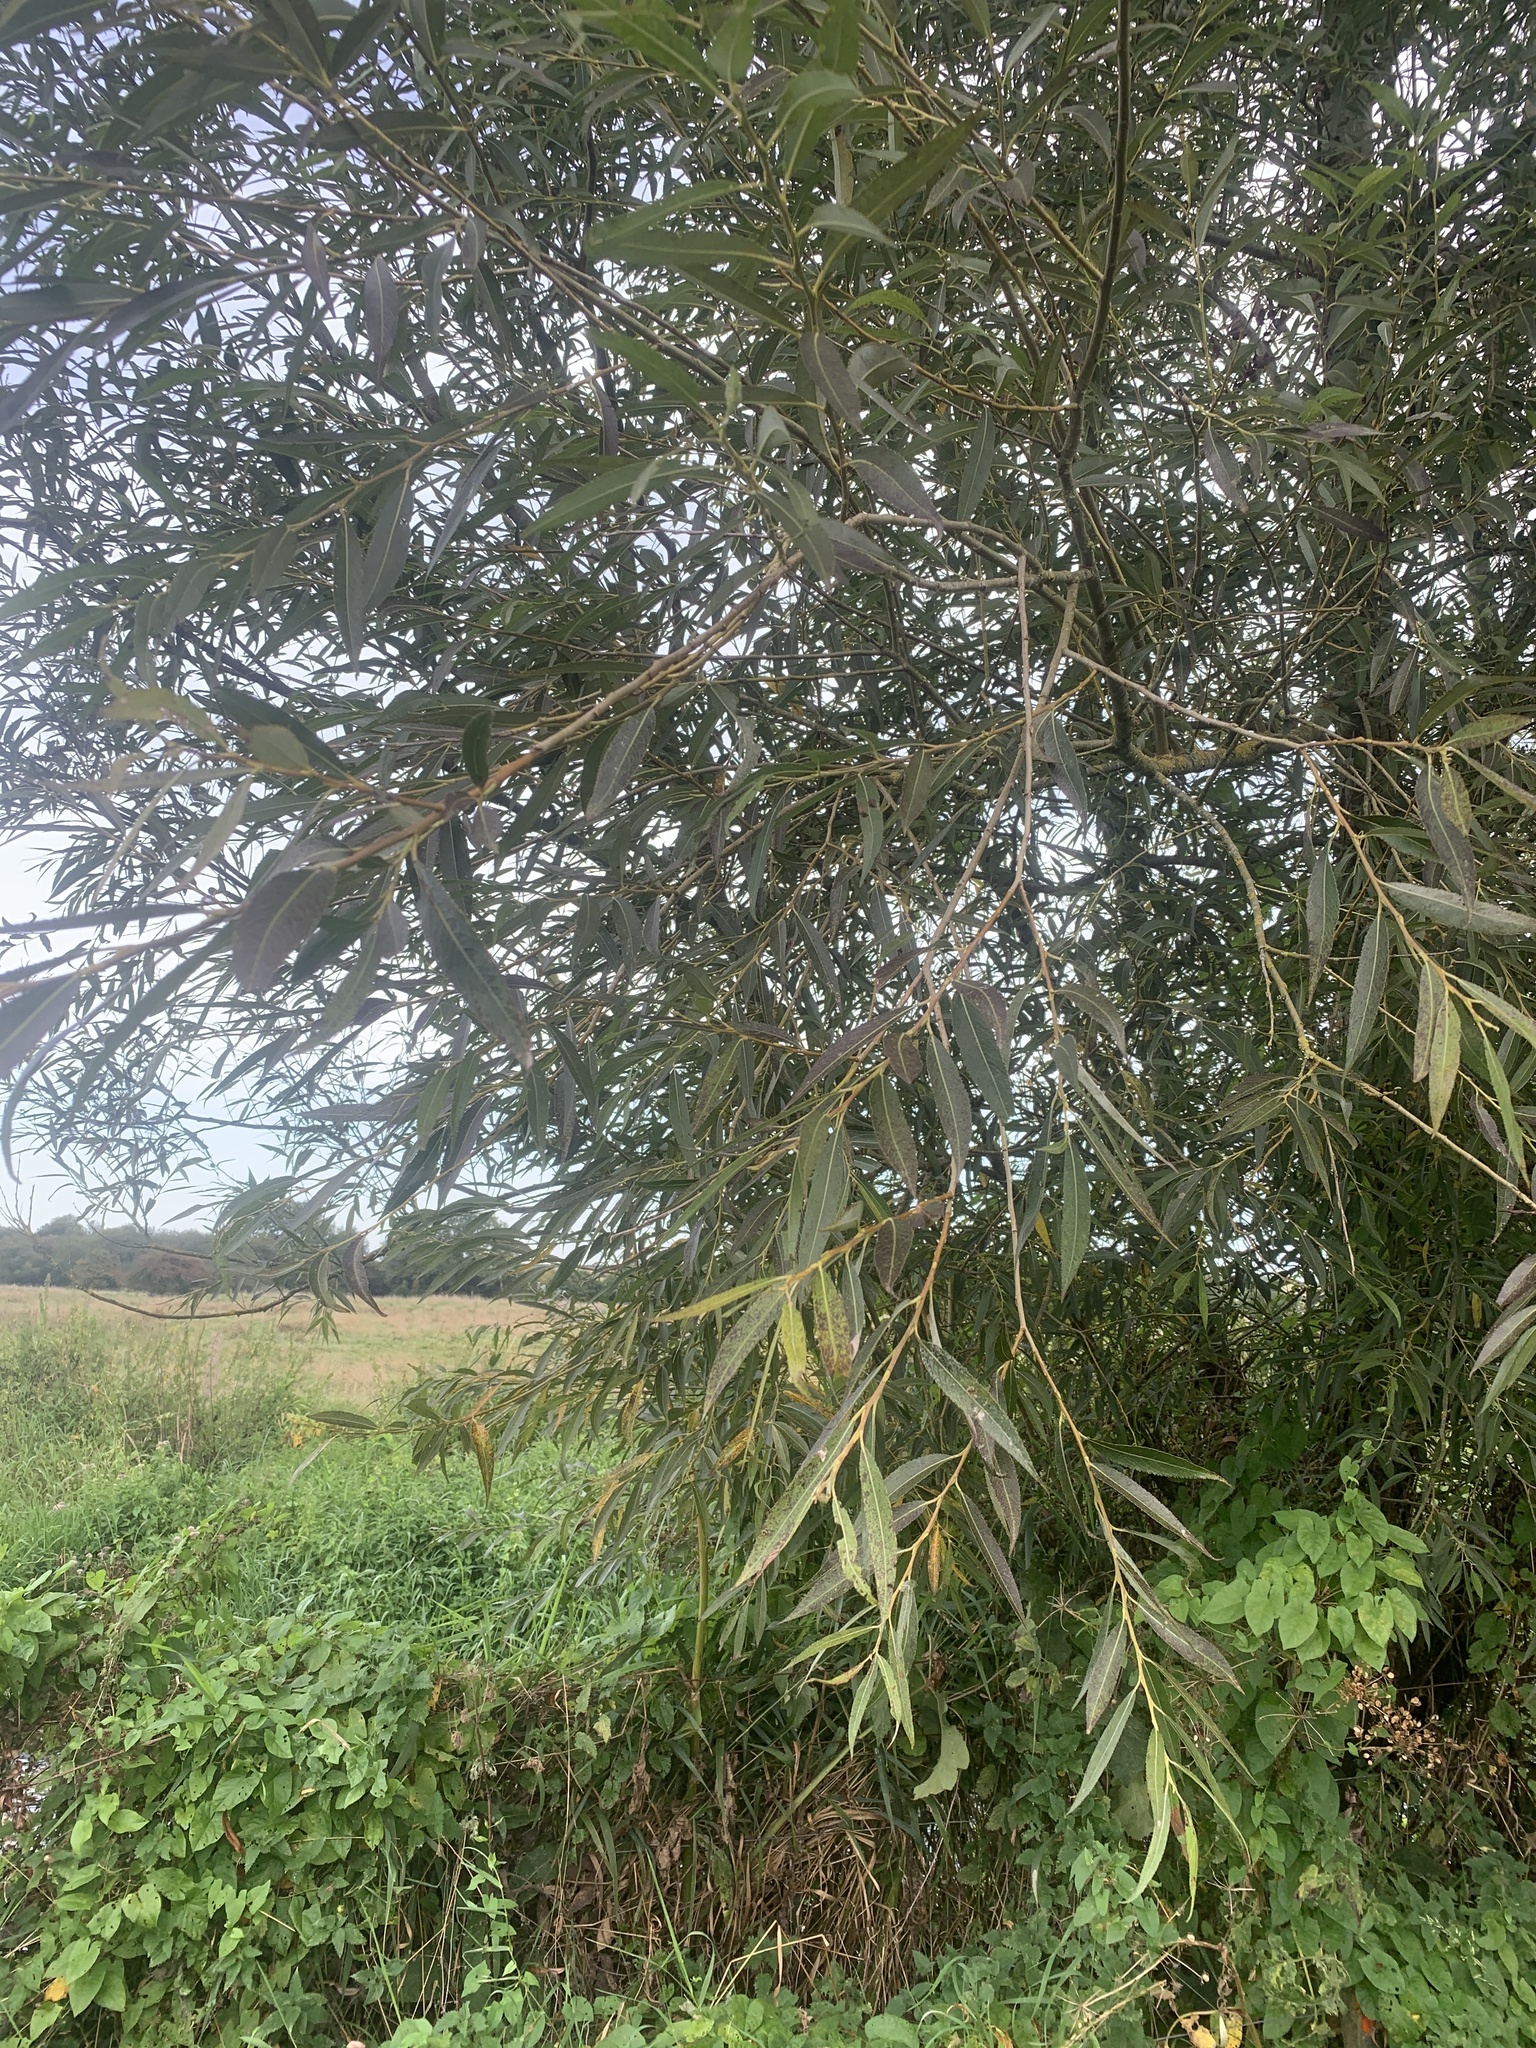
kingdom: Plantae
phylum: Tracheophyta
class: Magnoliopsida
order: Malpighiales
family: Salicaceae
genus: Salix
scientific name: Salix alba
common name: White willow
